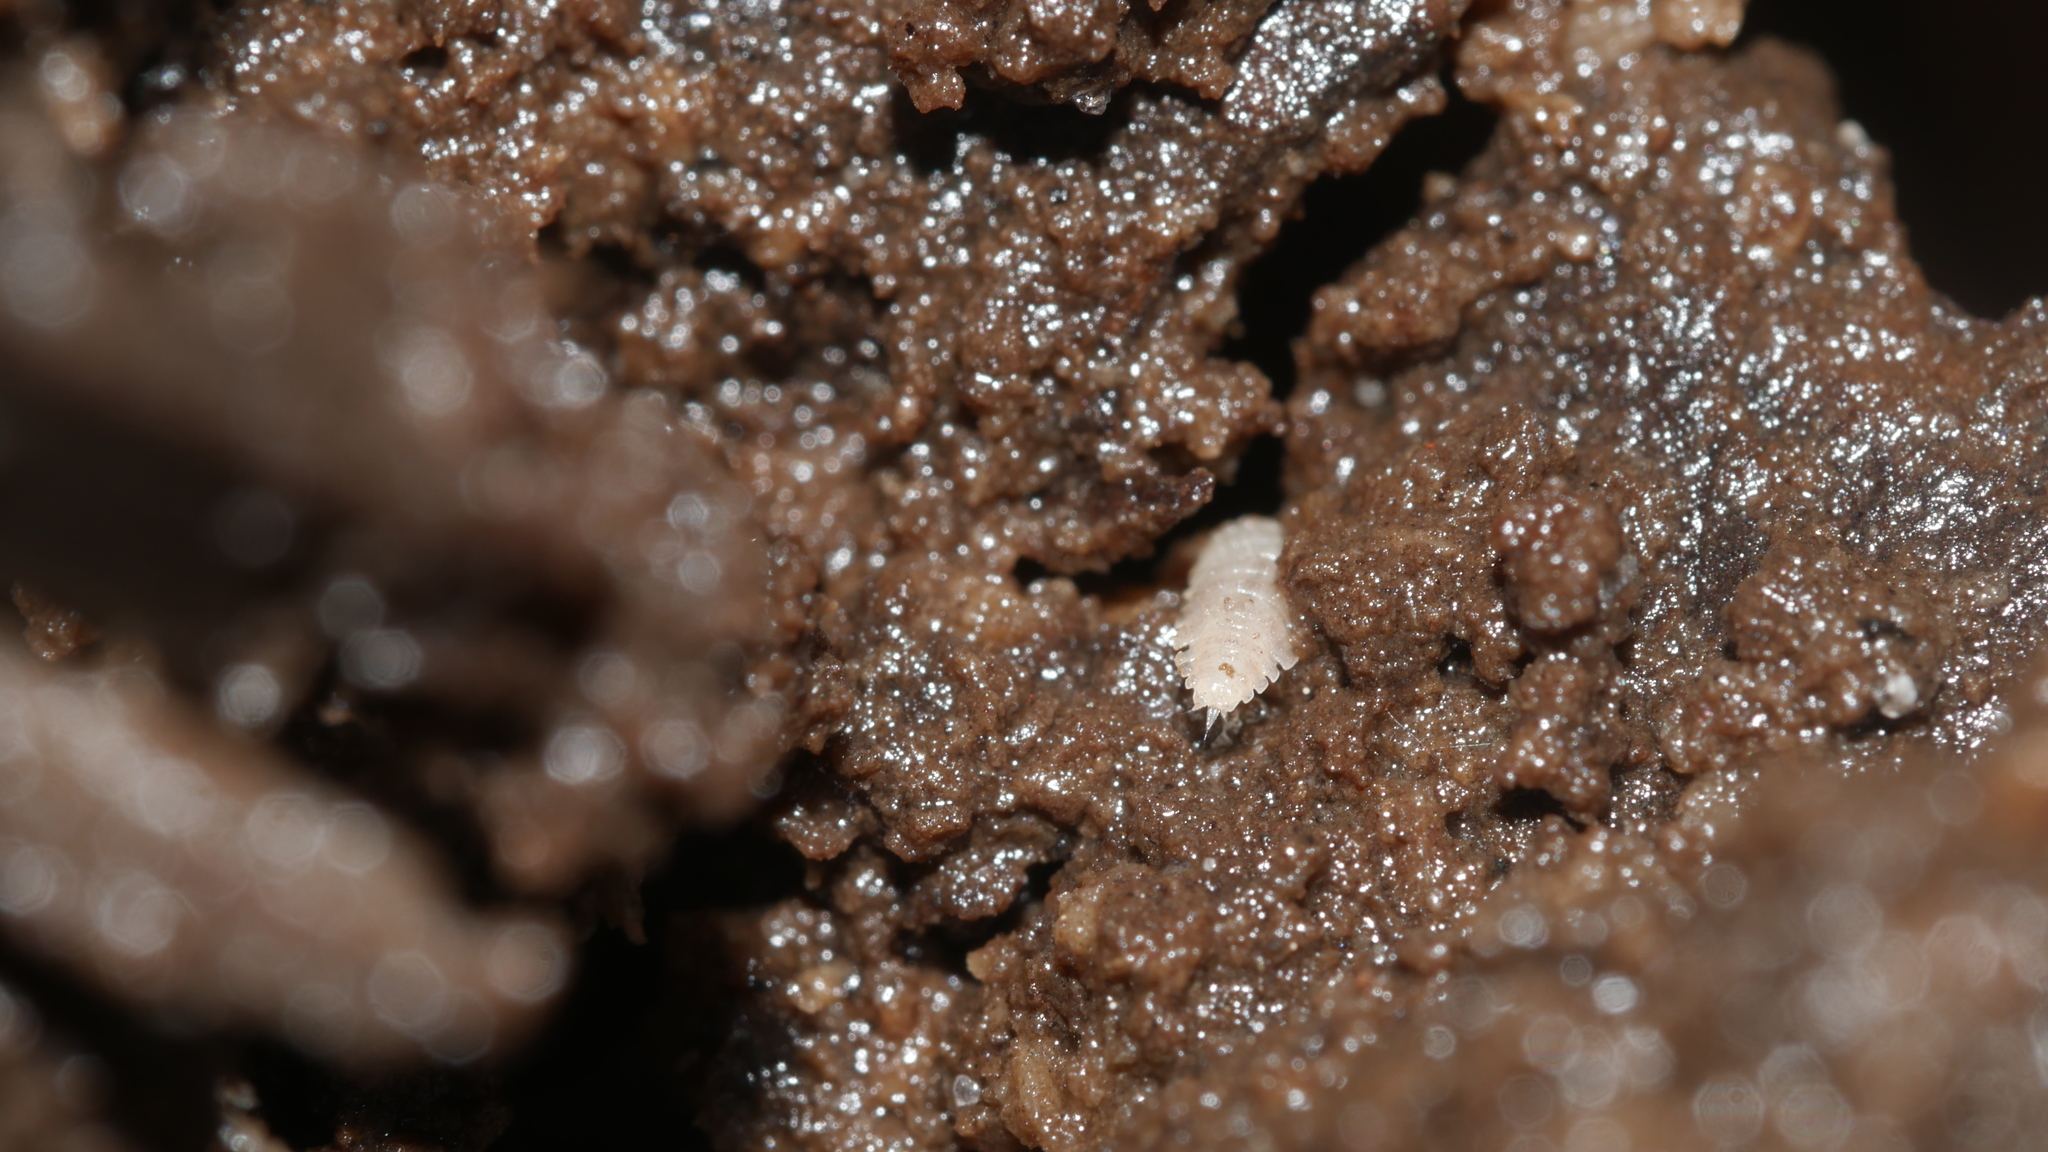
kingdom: Animalia
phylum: Arthropoda
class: Malacostraca
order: Isopoda
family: Trichoniscidae
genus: Haplophthalmus
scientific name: Haplophthalmus danicus
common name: Pillbug
